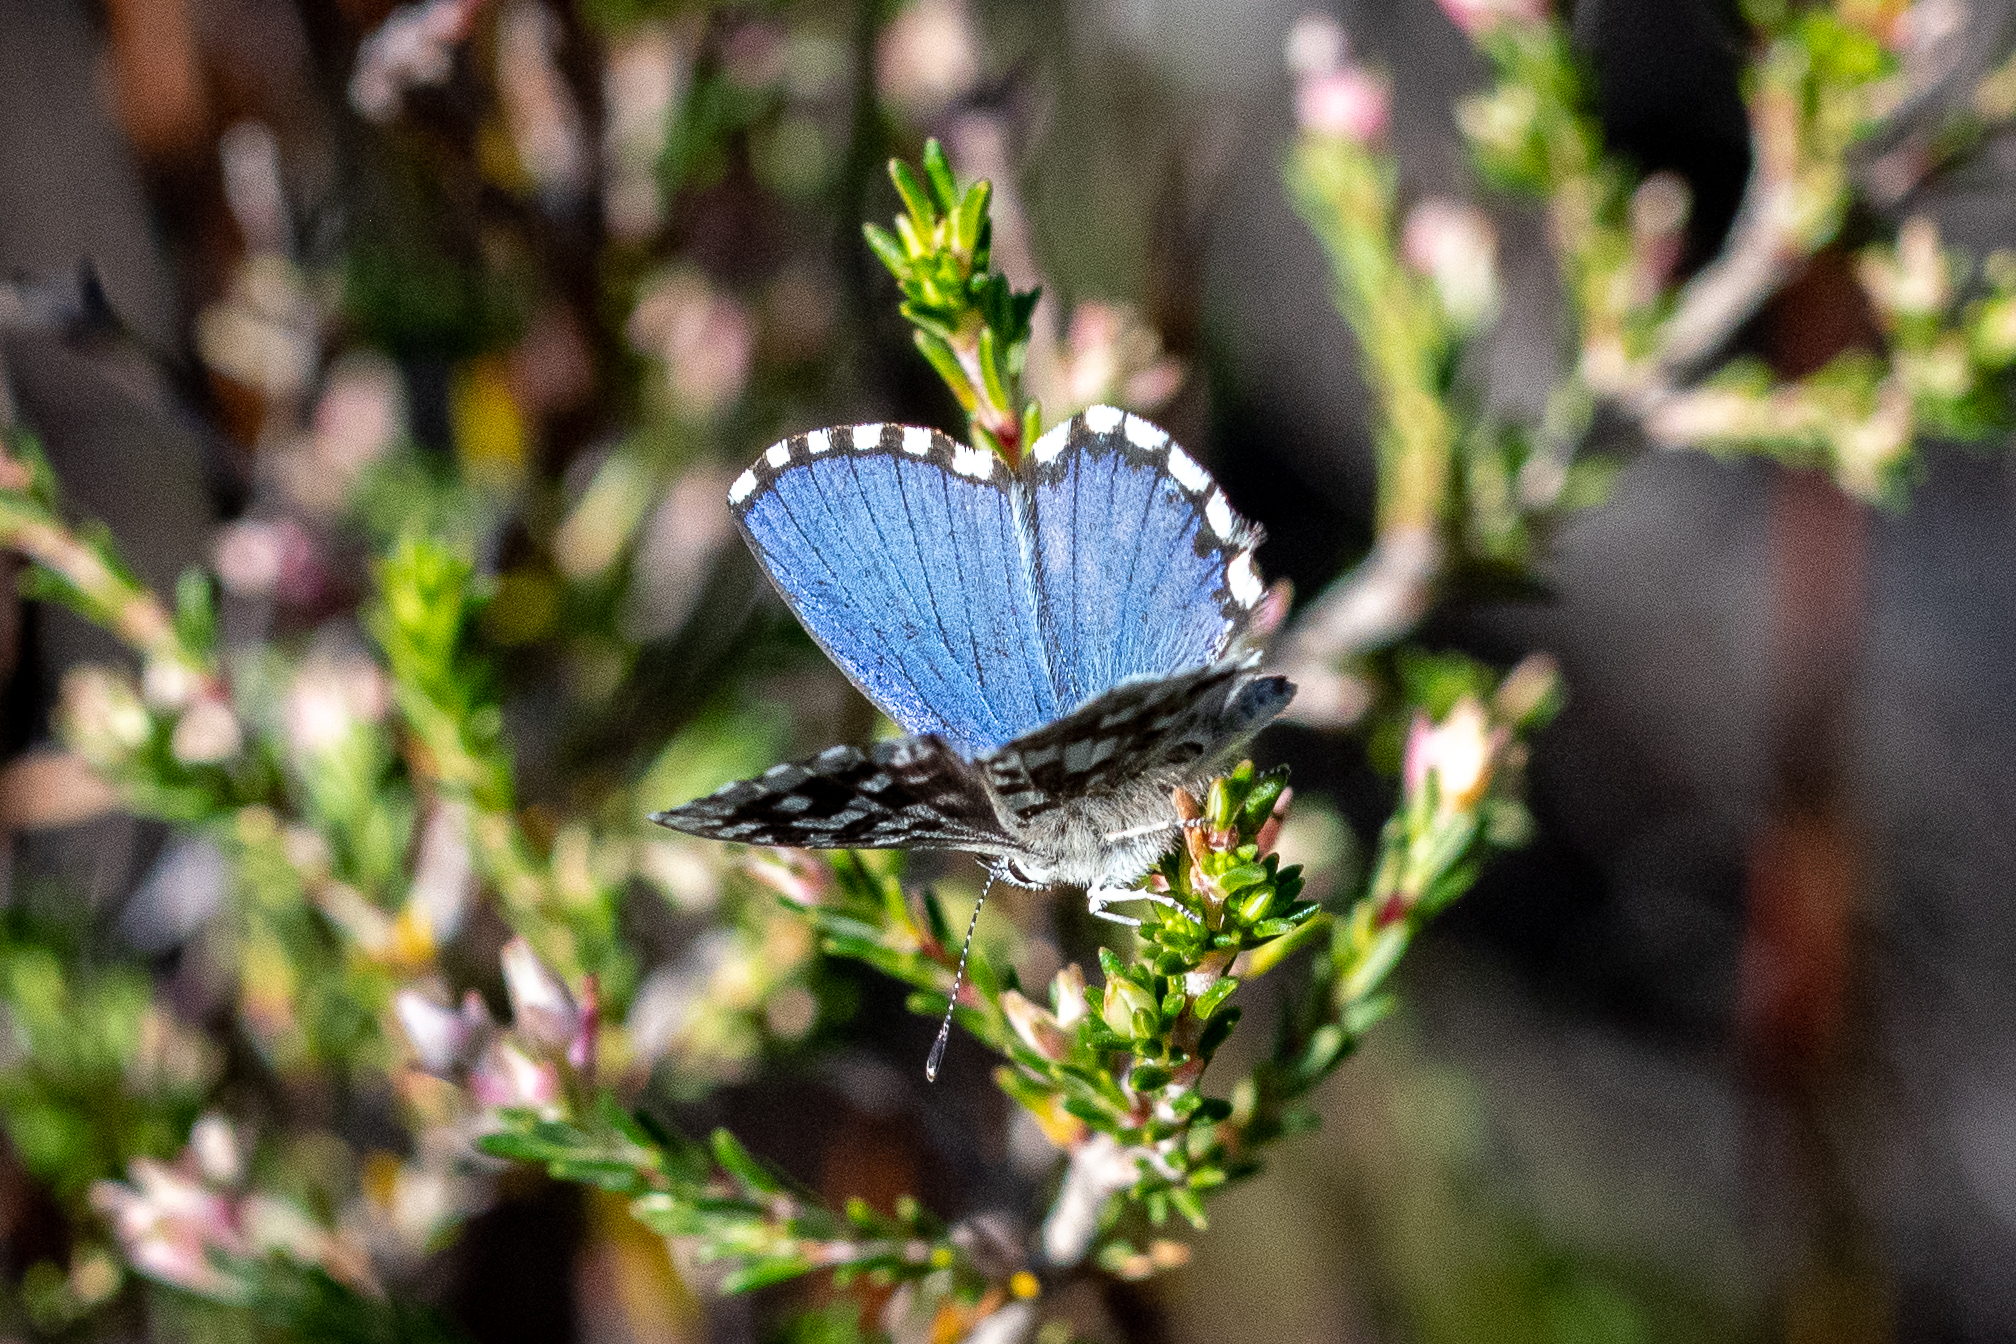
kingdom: Animalia
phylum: Arthropoda
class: Insecta
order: Lepidoptera
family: Lycaenidae
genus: Tarucus
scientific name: Tarucus thespis
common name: Vivid dotted blue
